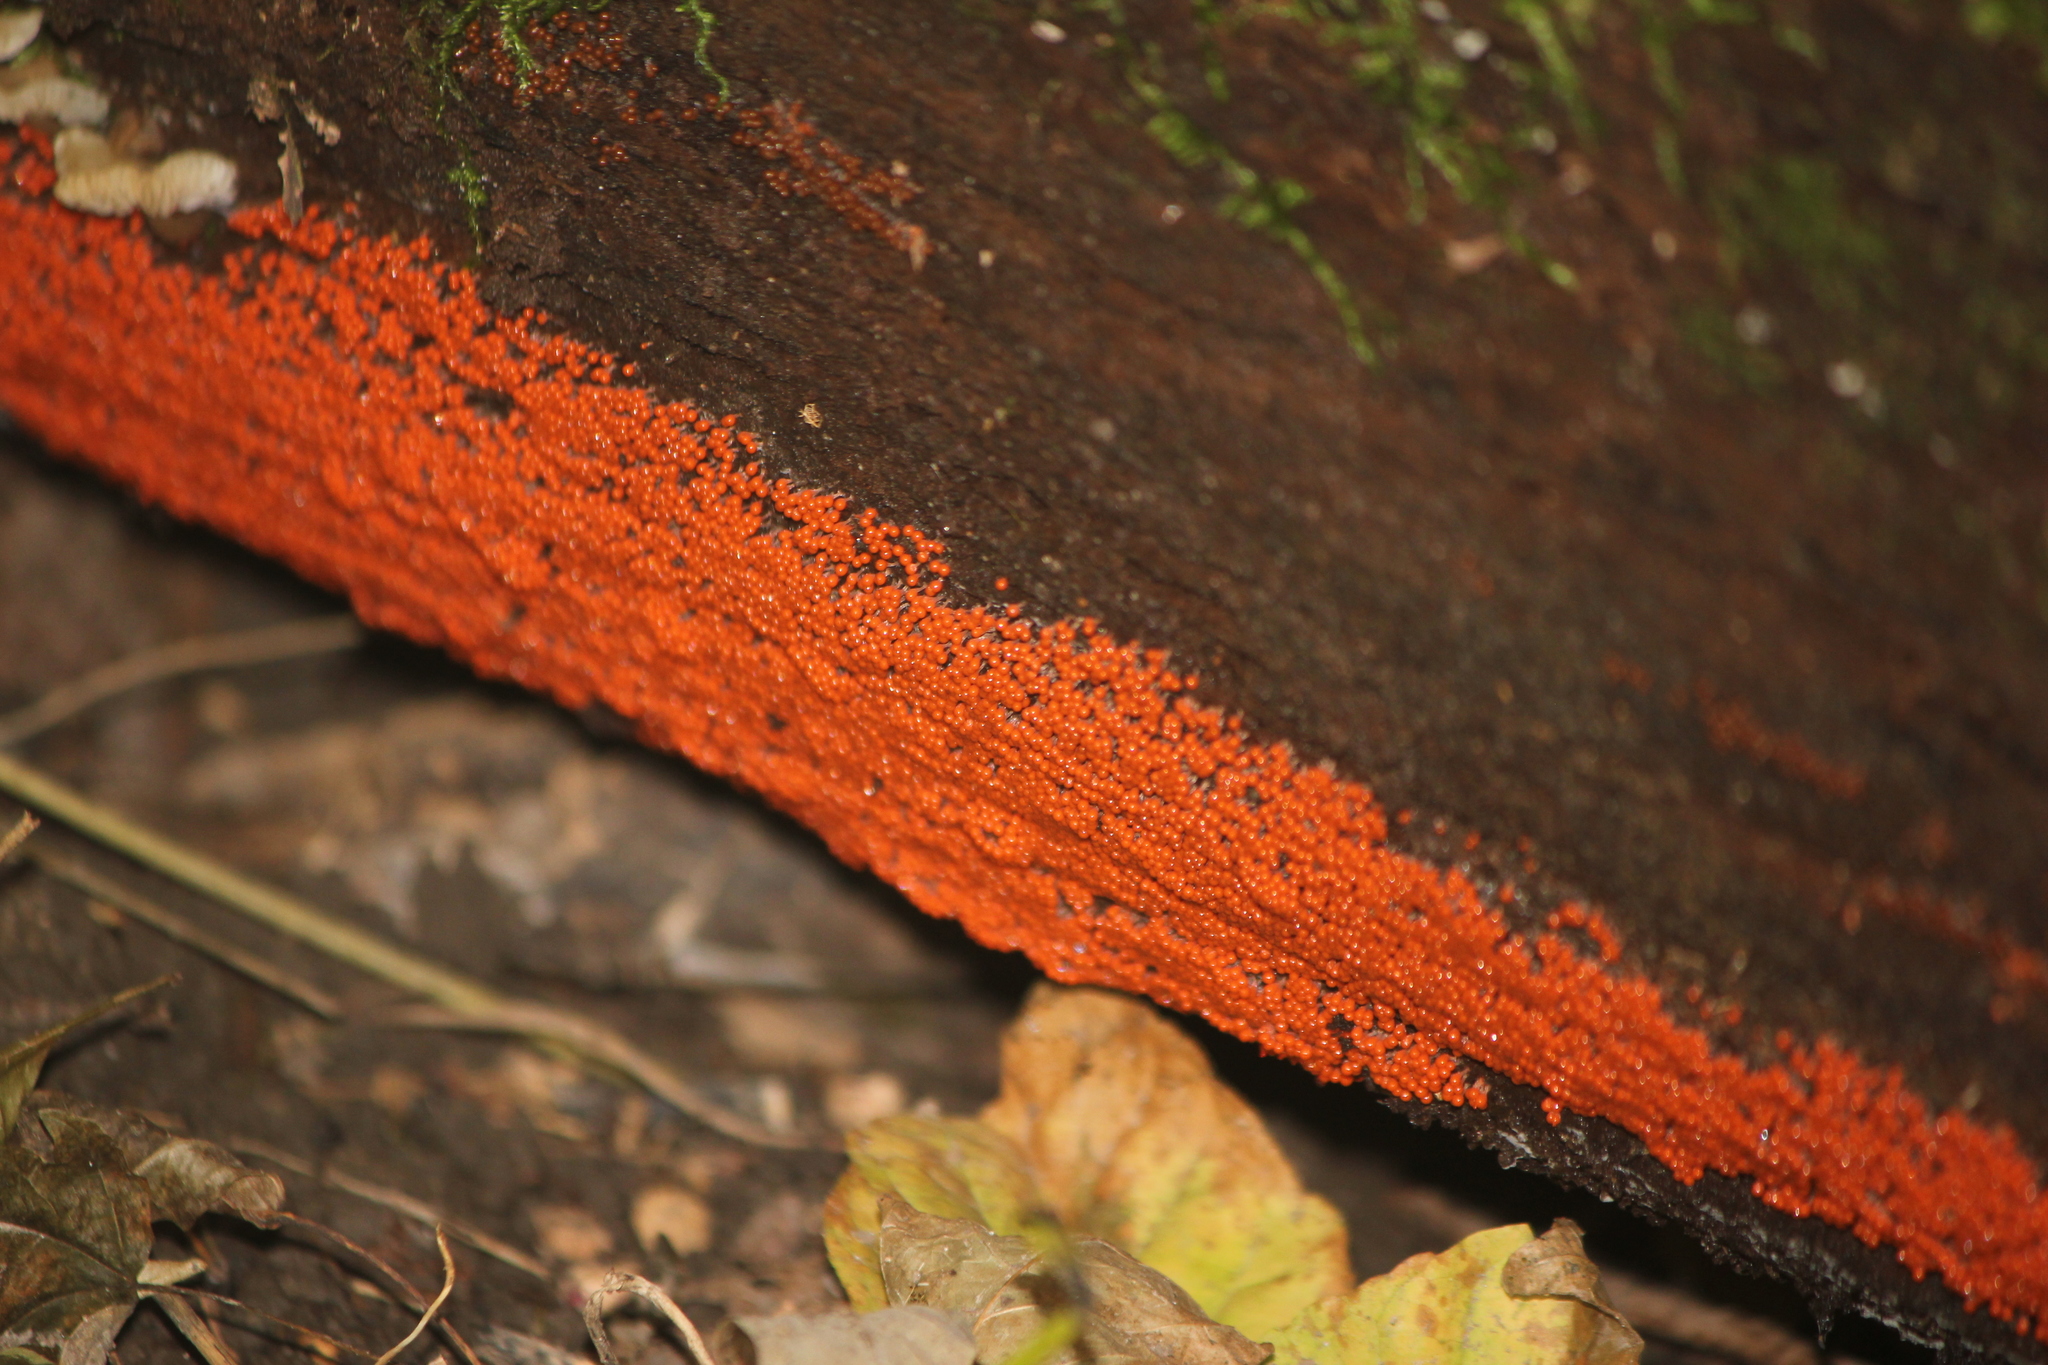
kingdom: Protozoa
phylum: Mycetozoa
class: Myxomycetes
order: Trichiales
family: Arcyriaceae
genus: Hemitrichia
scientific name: Hemitrichia decipiens
